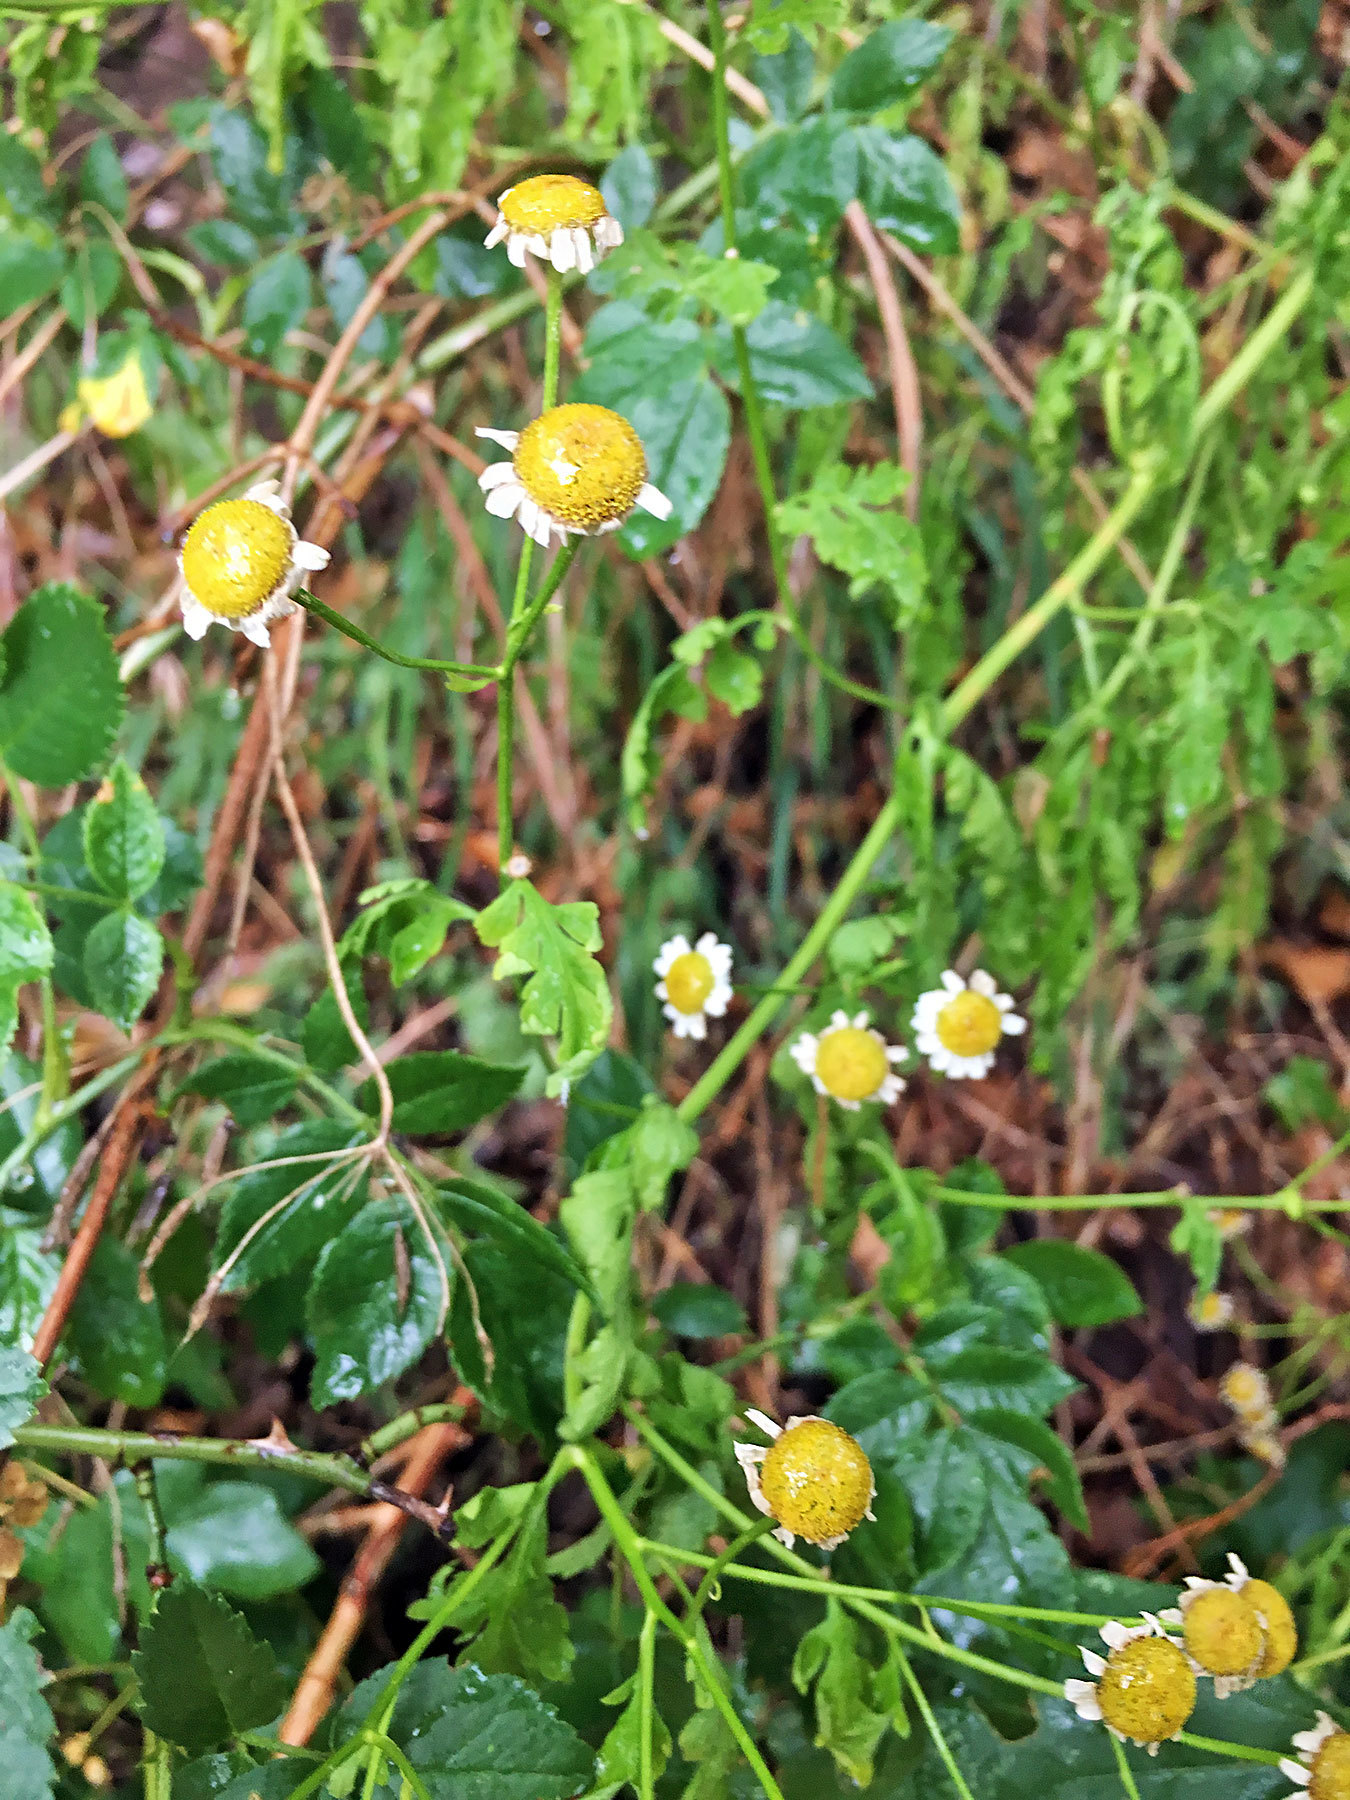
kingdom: Plantae
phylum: Tracheophyta
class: Magnoliopsida
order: Asterales
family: Asteraceae
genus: Tanacetum
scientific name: Tanacetum parthenium
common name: Feverfew
